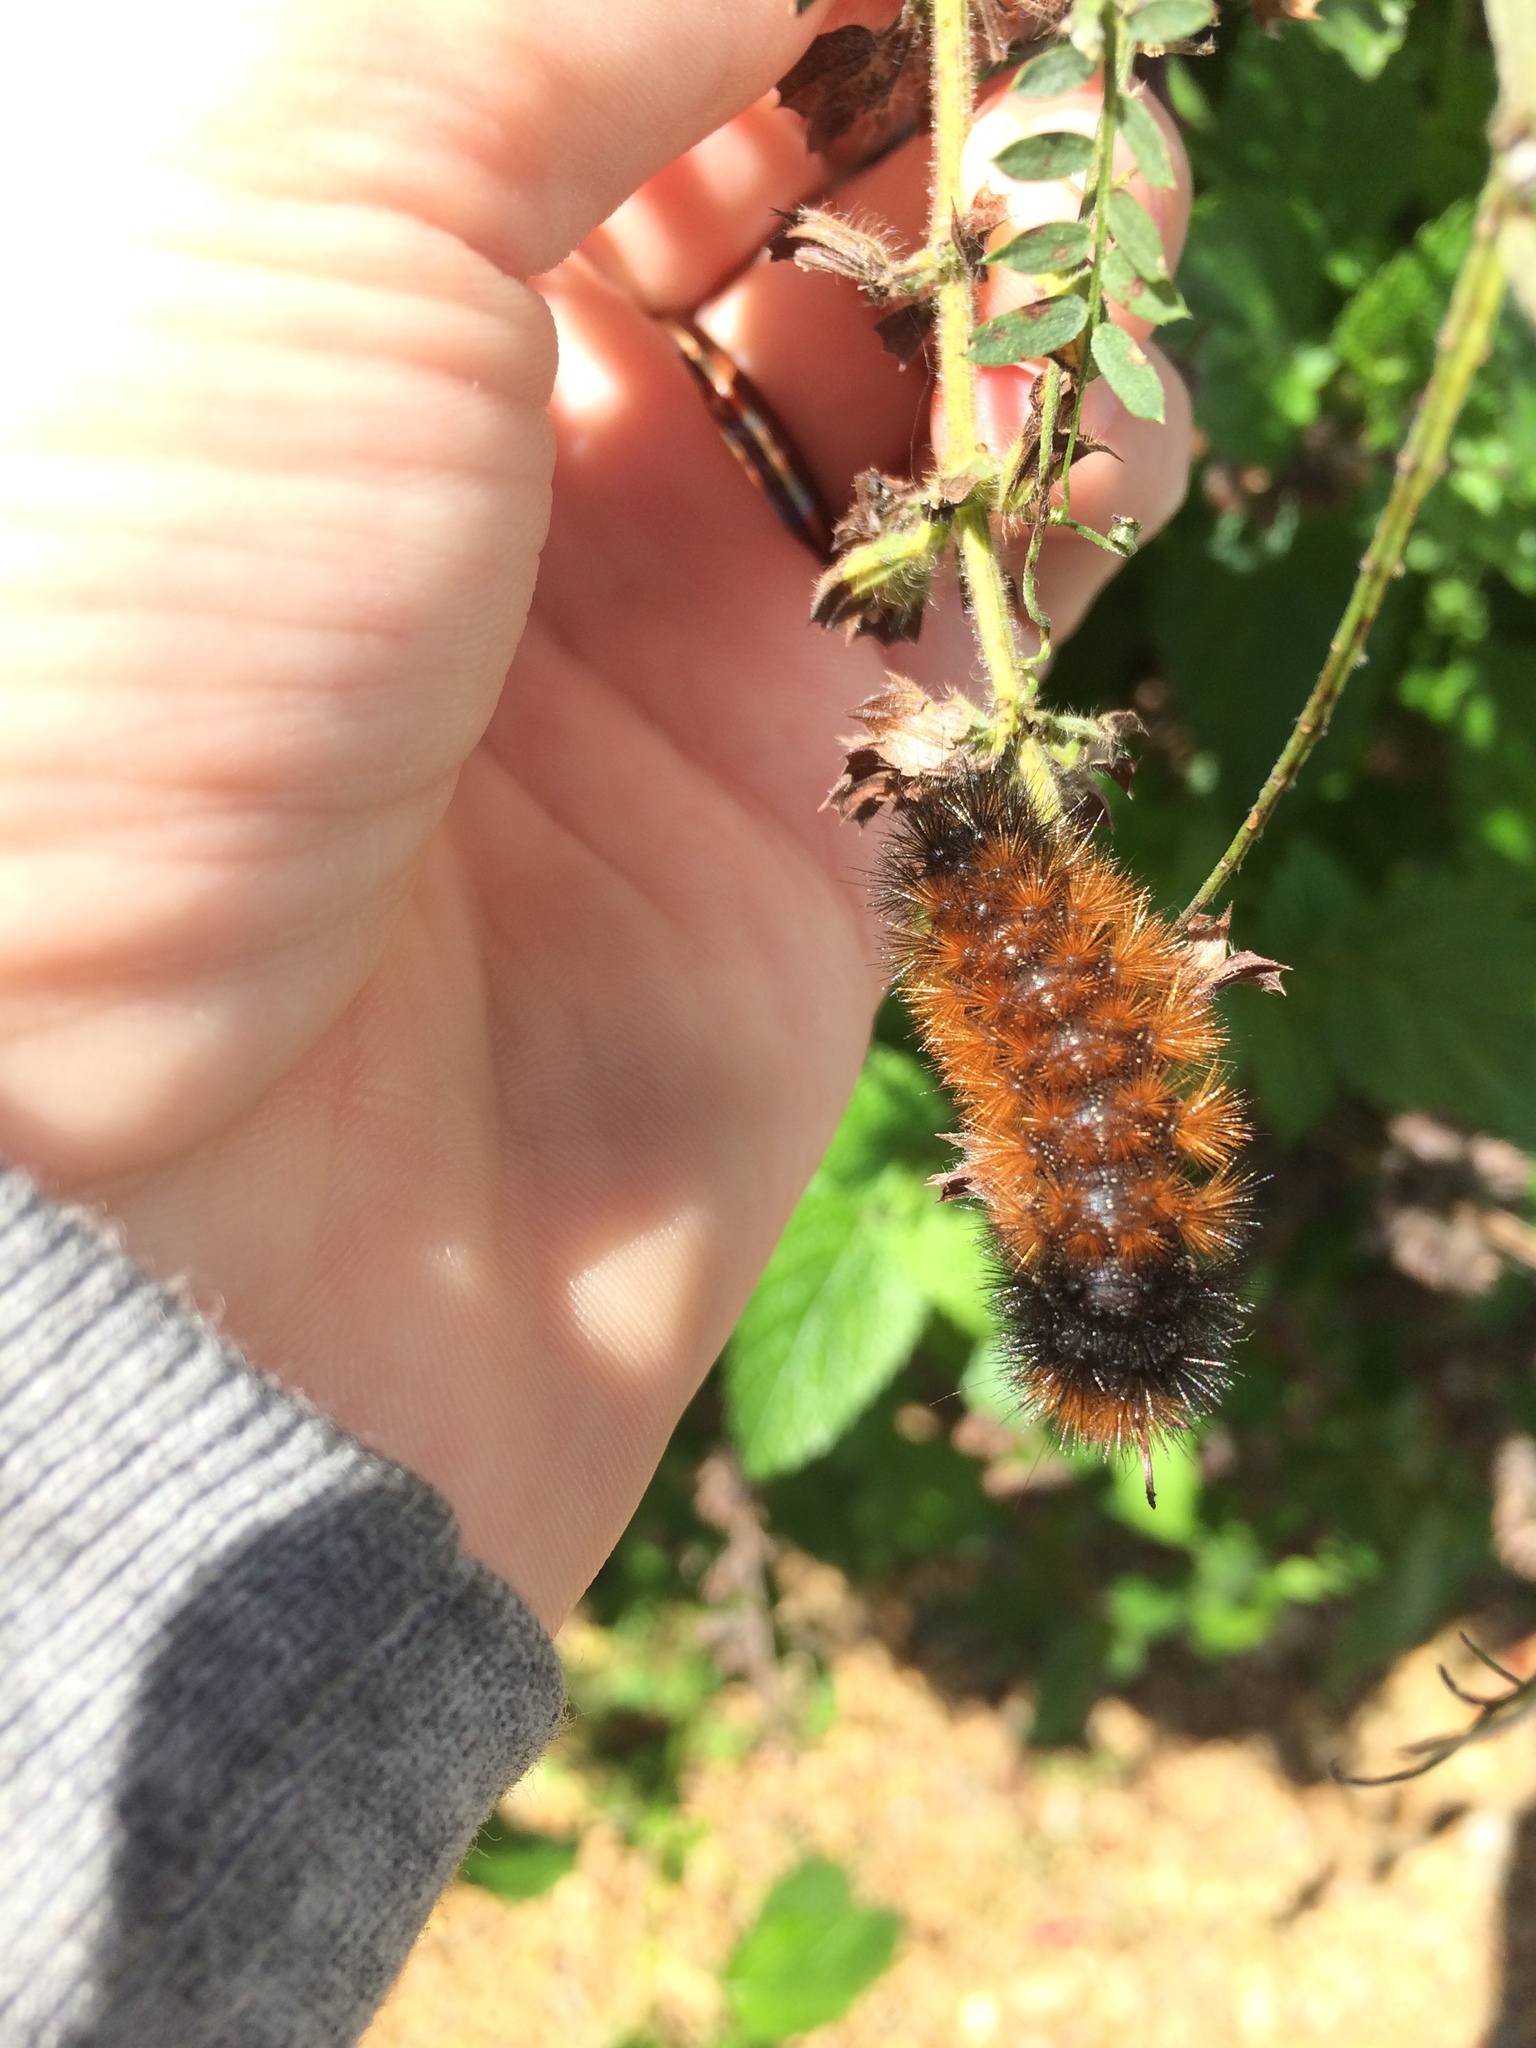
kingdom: Animalia
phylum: Arthropoda
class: Insecta
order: Lepidoptera
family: Erebidae
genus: Pyrrharctia
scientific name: Pyrrharctia isabella
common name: Isabella tiger moth
